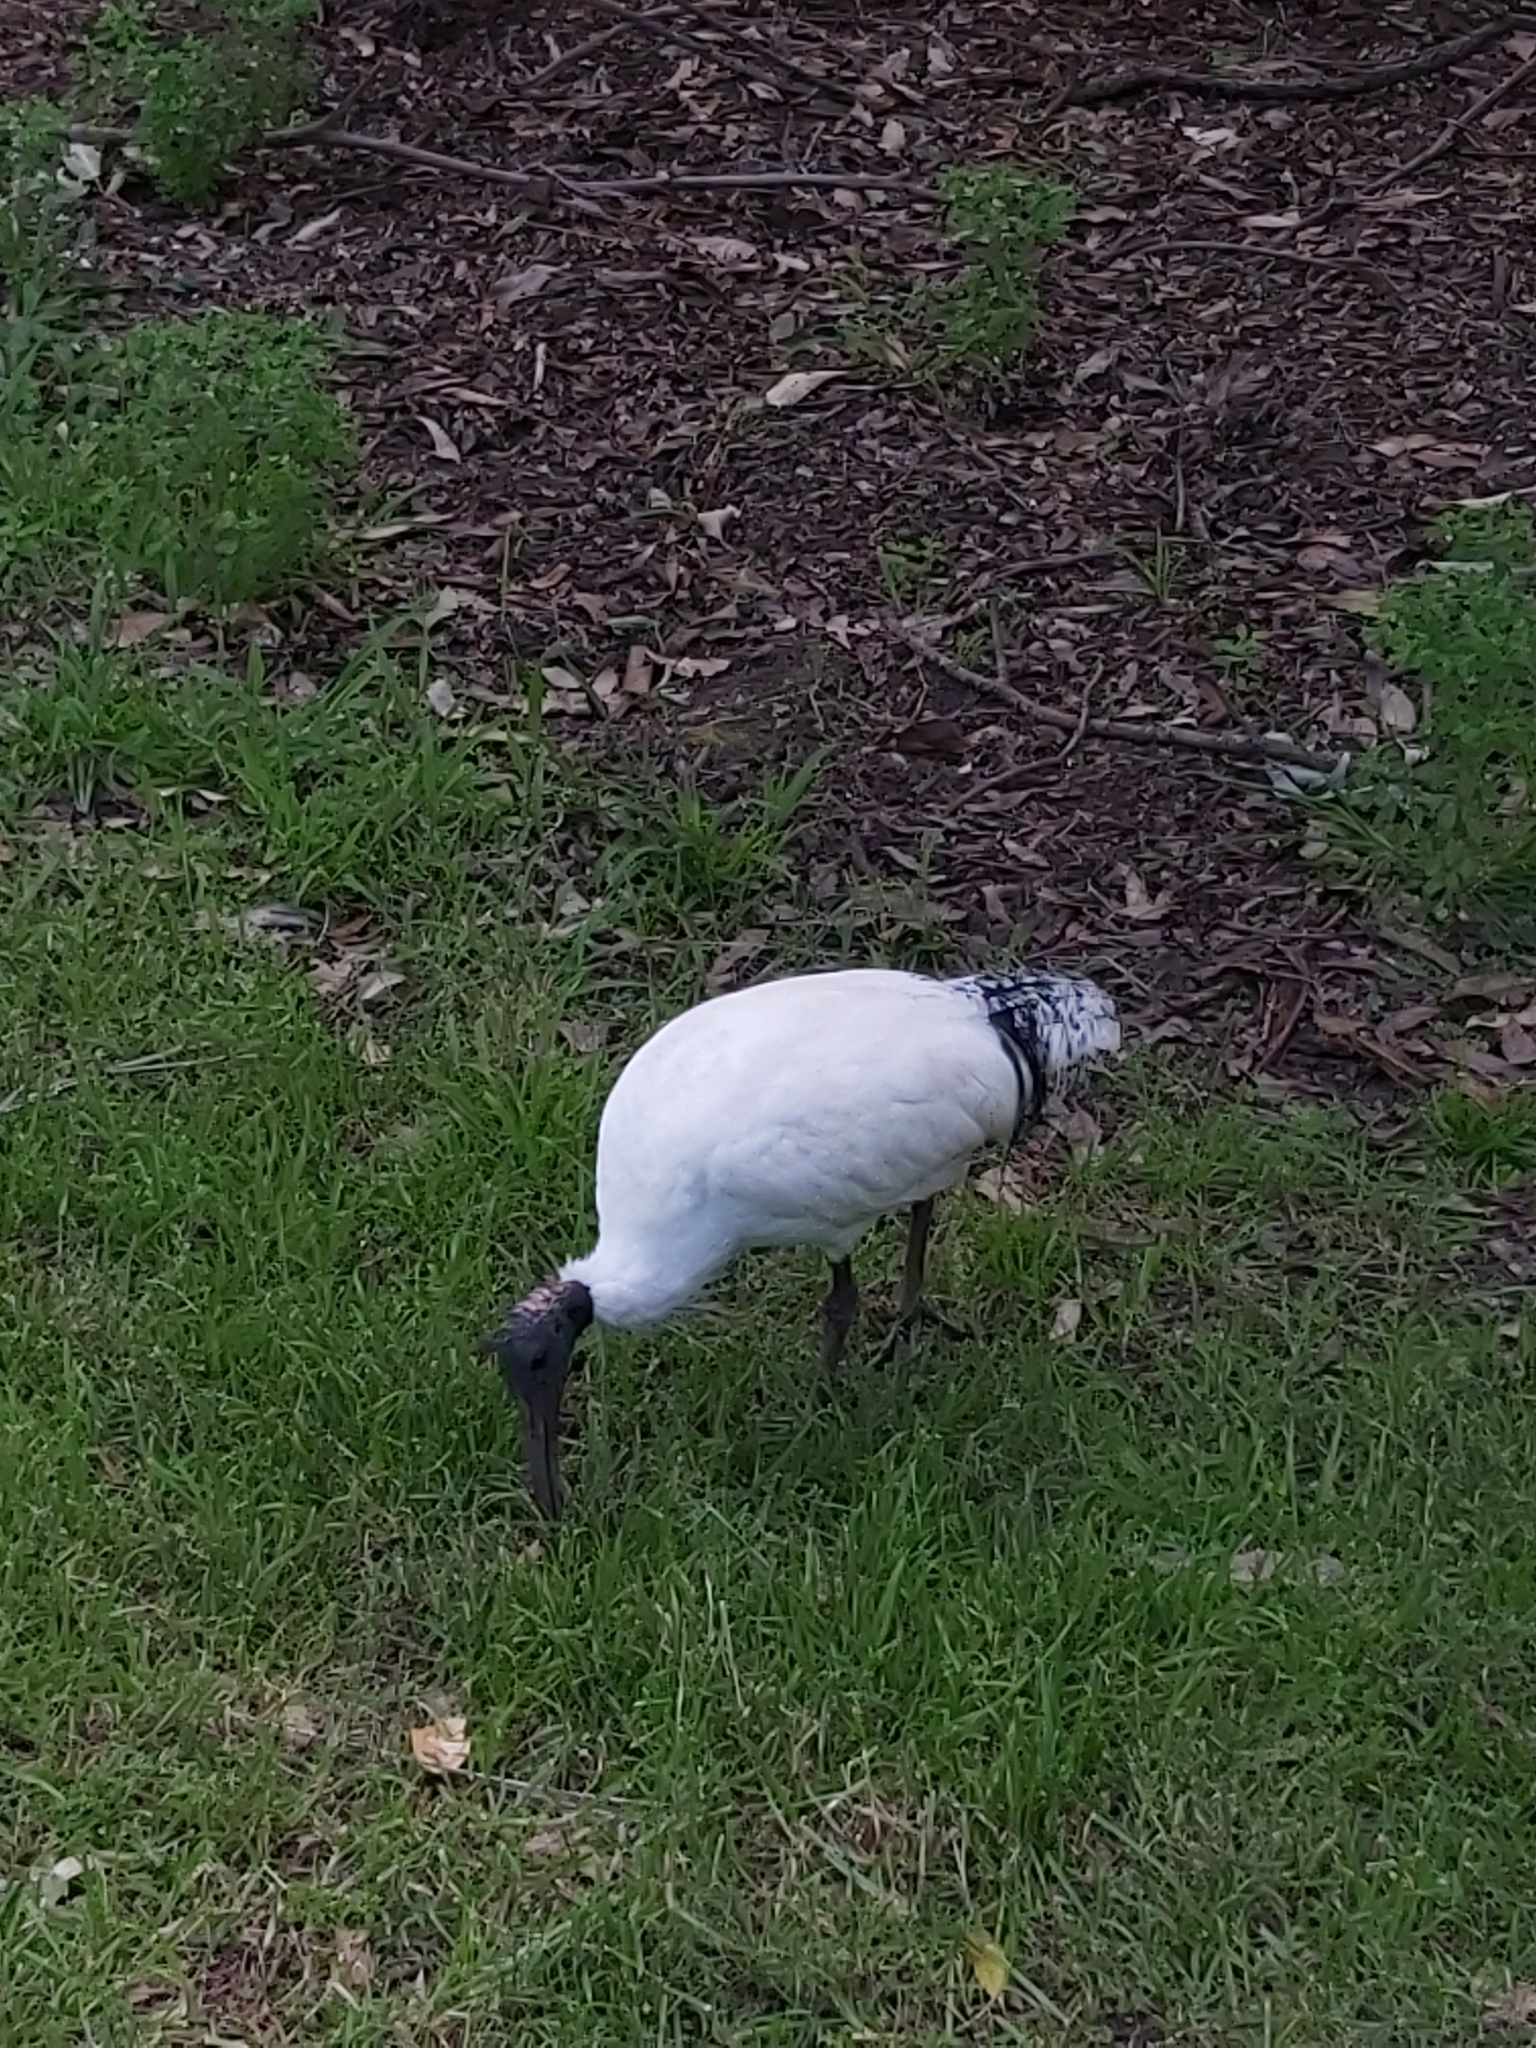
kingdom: Animalia
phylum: Chordata
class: Aves
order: Pelecaniformes
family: Threskiornithidae
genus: Threskiornis
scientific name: Threskiornis molucca
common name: Australian white ibis
